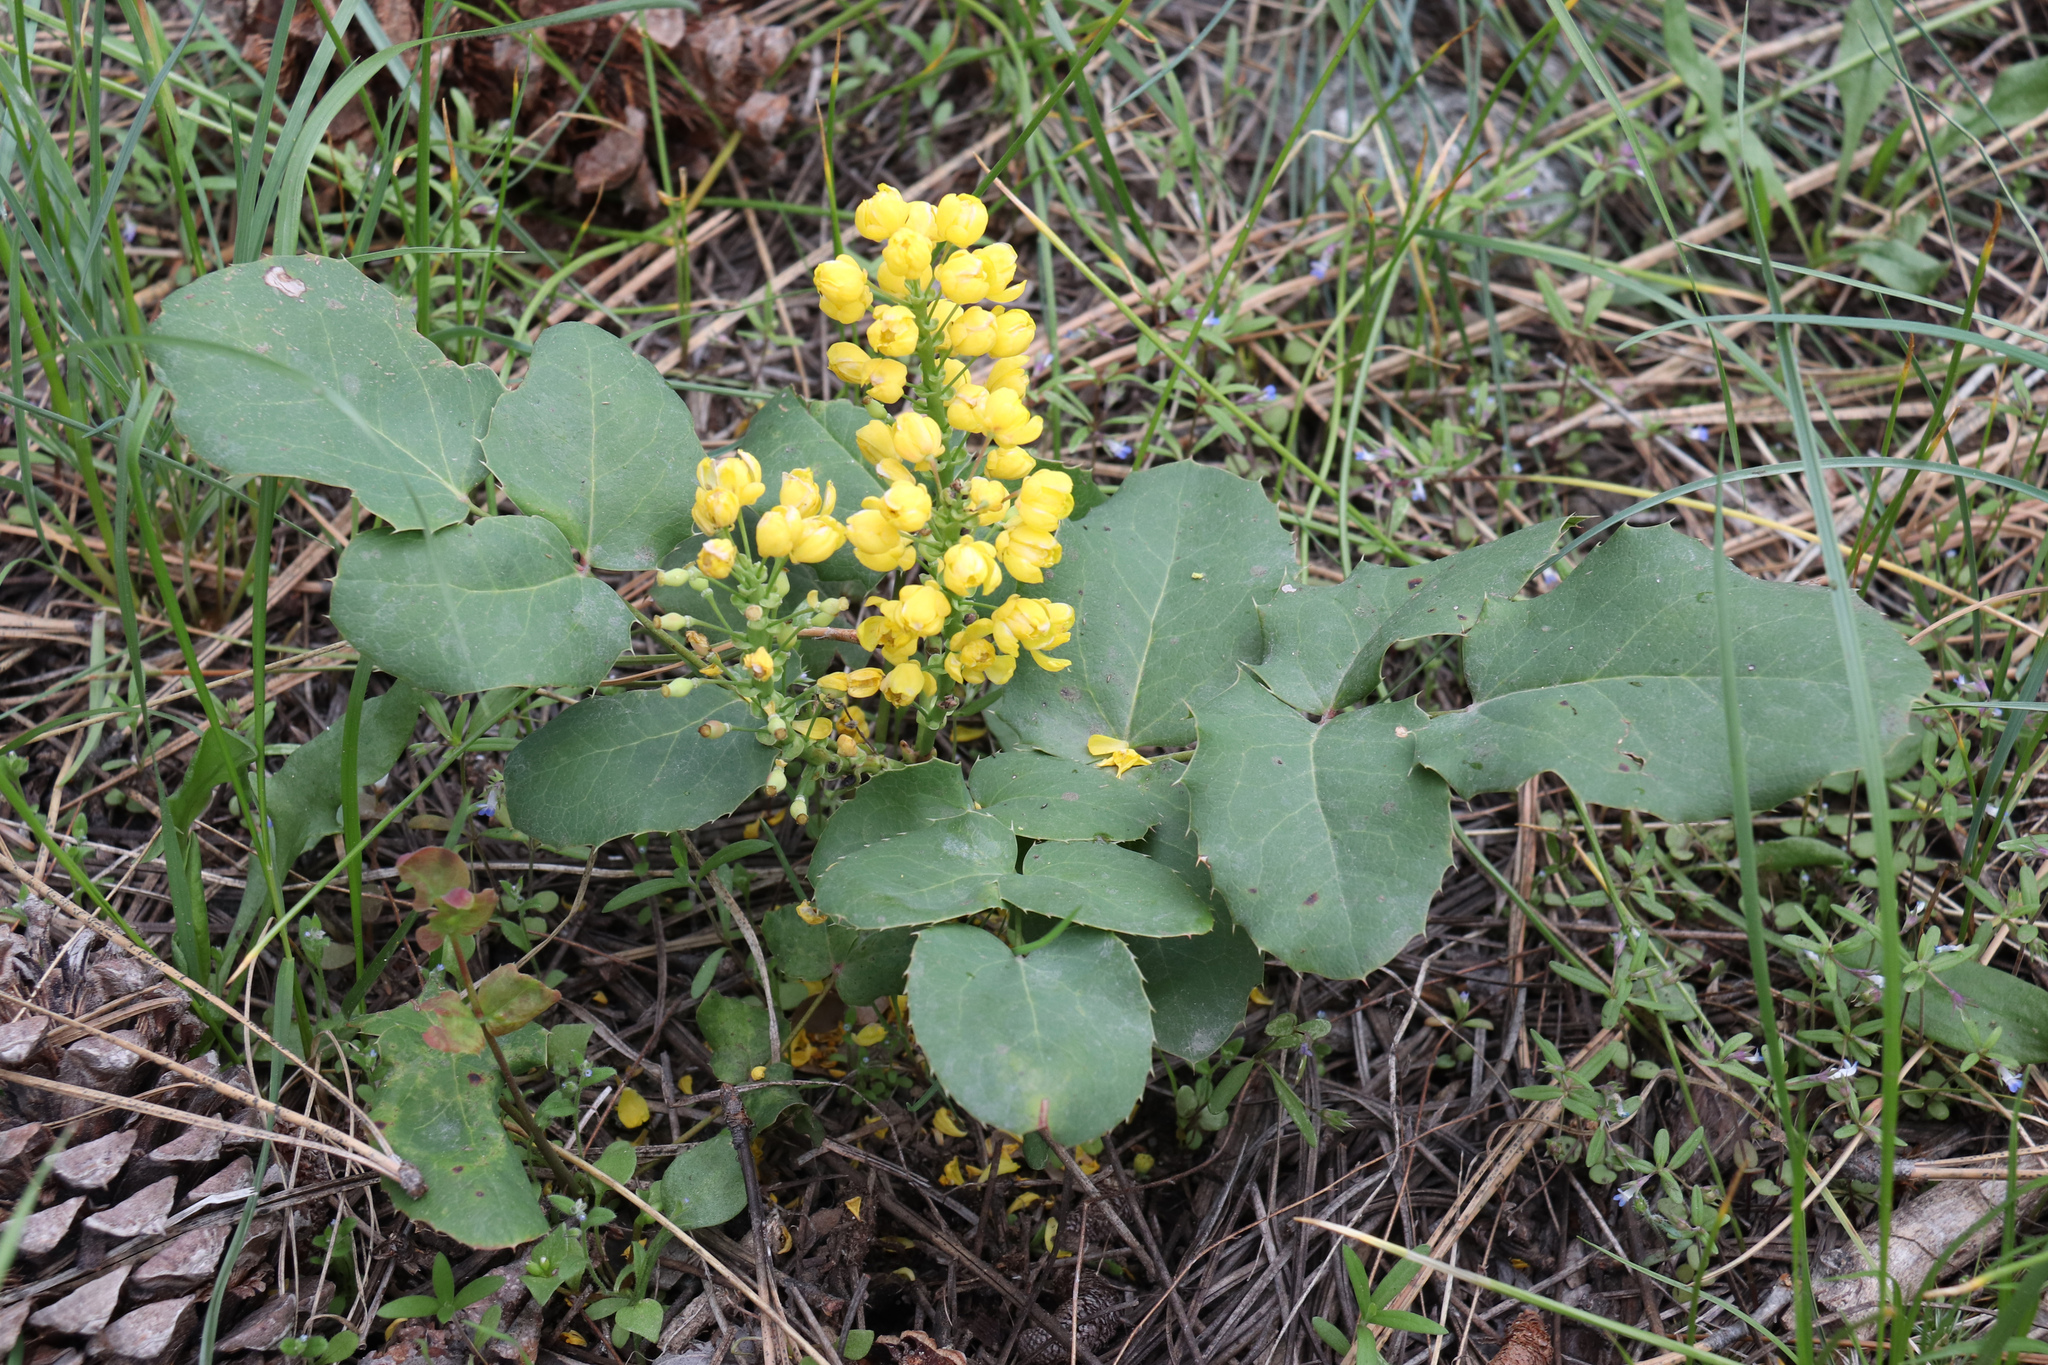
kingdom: Plantae
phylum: Tracheophyta
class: Magnoliopsida
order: Ranunculales
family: Berberidaceae
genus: Mahonia
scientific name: Mahonia repens
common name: Creeping oregon-grape
